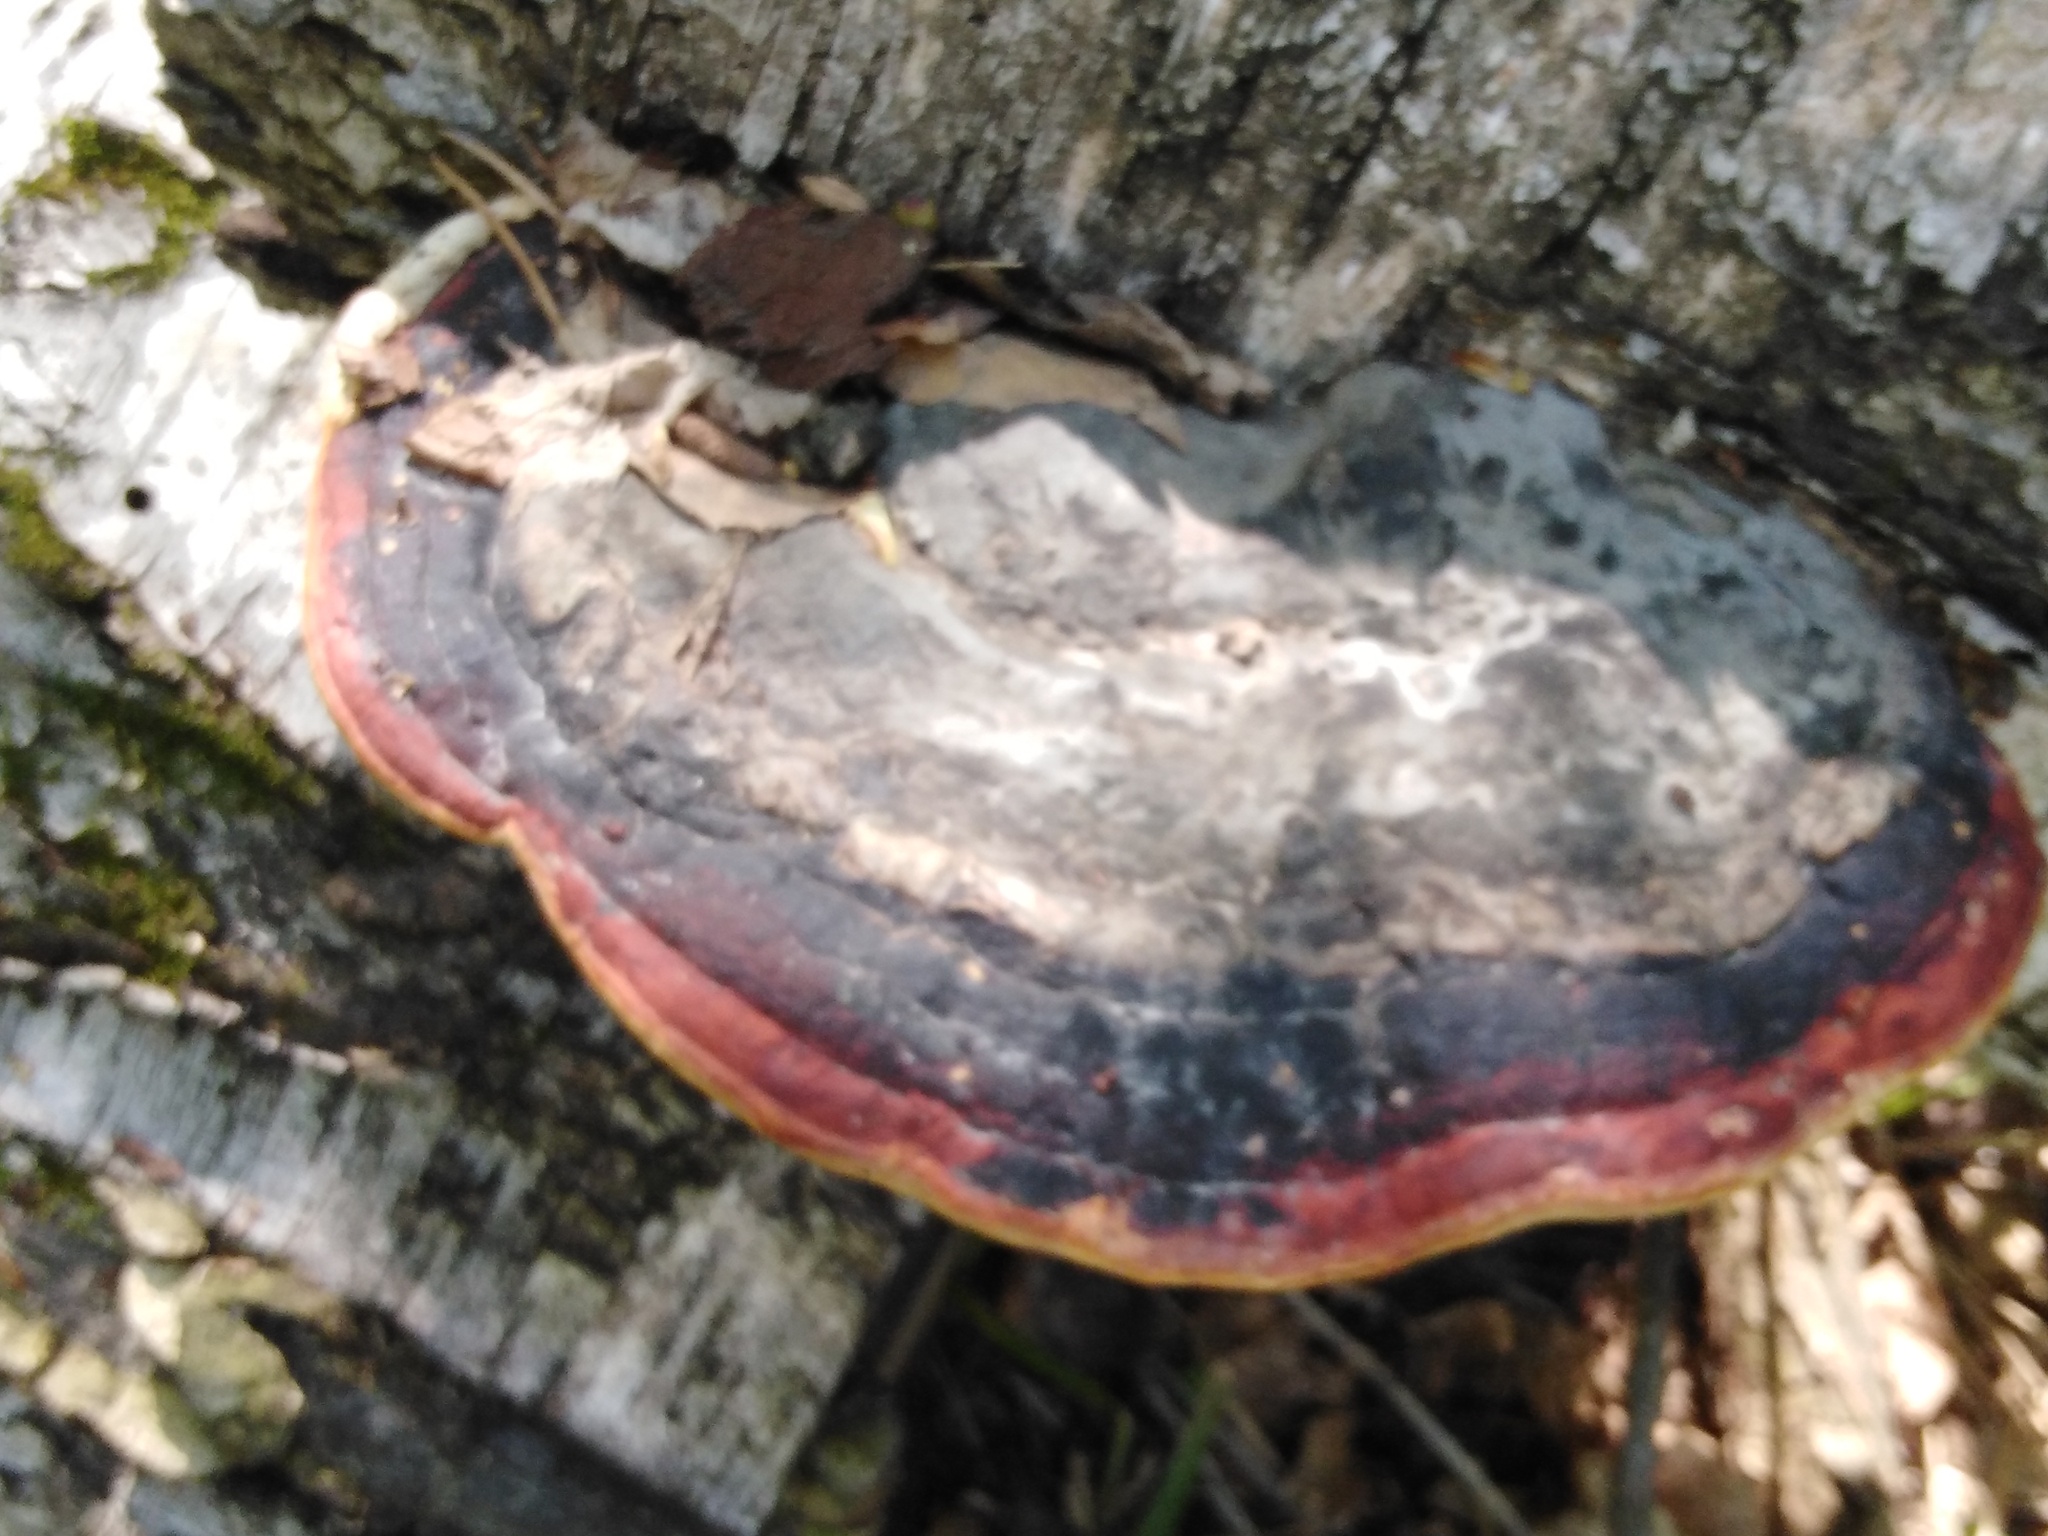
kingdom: Fungi
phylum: Basidiomycota
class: Agaricomycetes
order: Polyporales
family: Fomitopsidaceae
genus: Fomitopsis
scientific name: Fomitopsis pinicola
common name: Red-belted bracket
